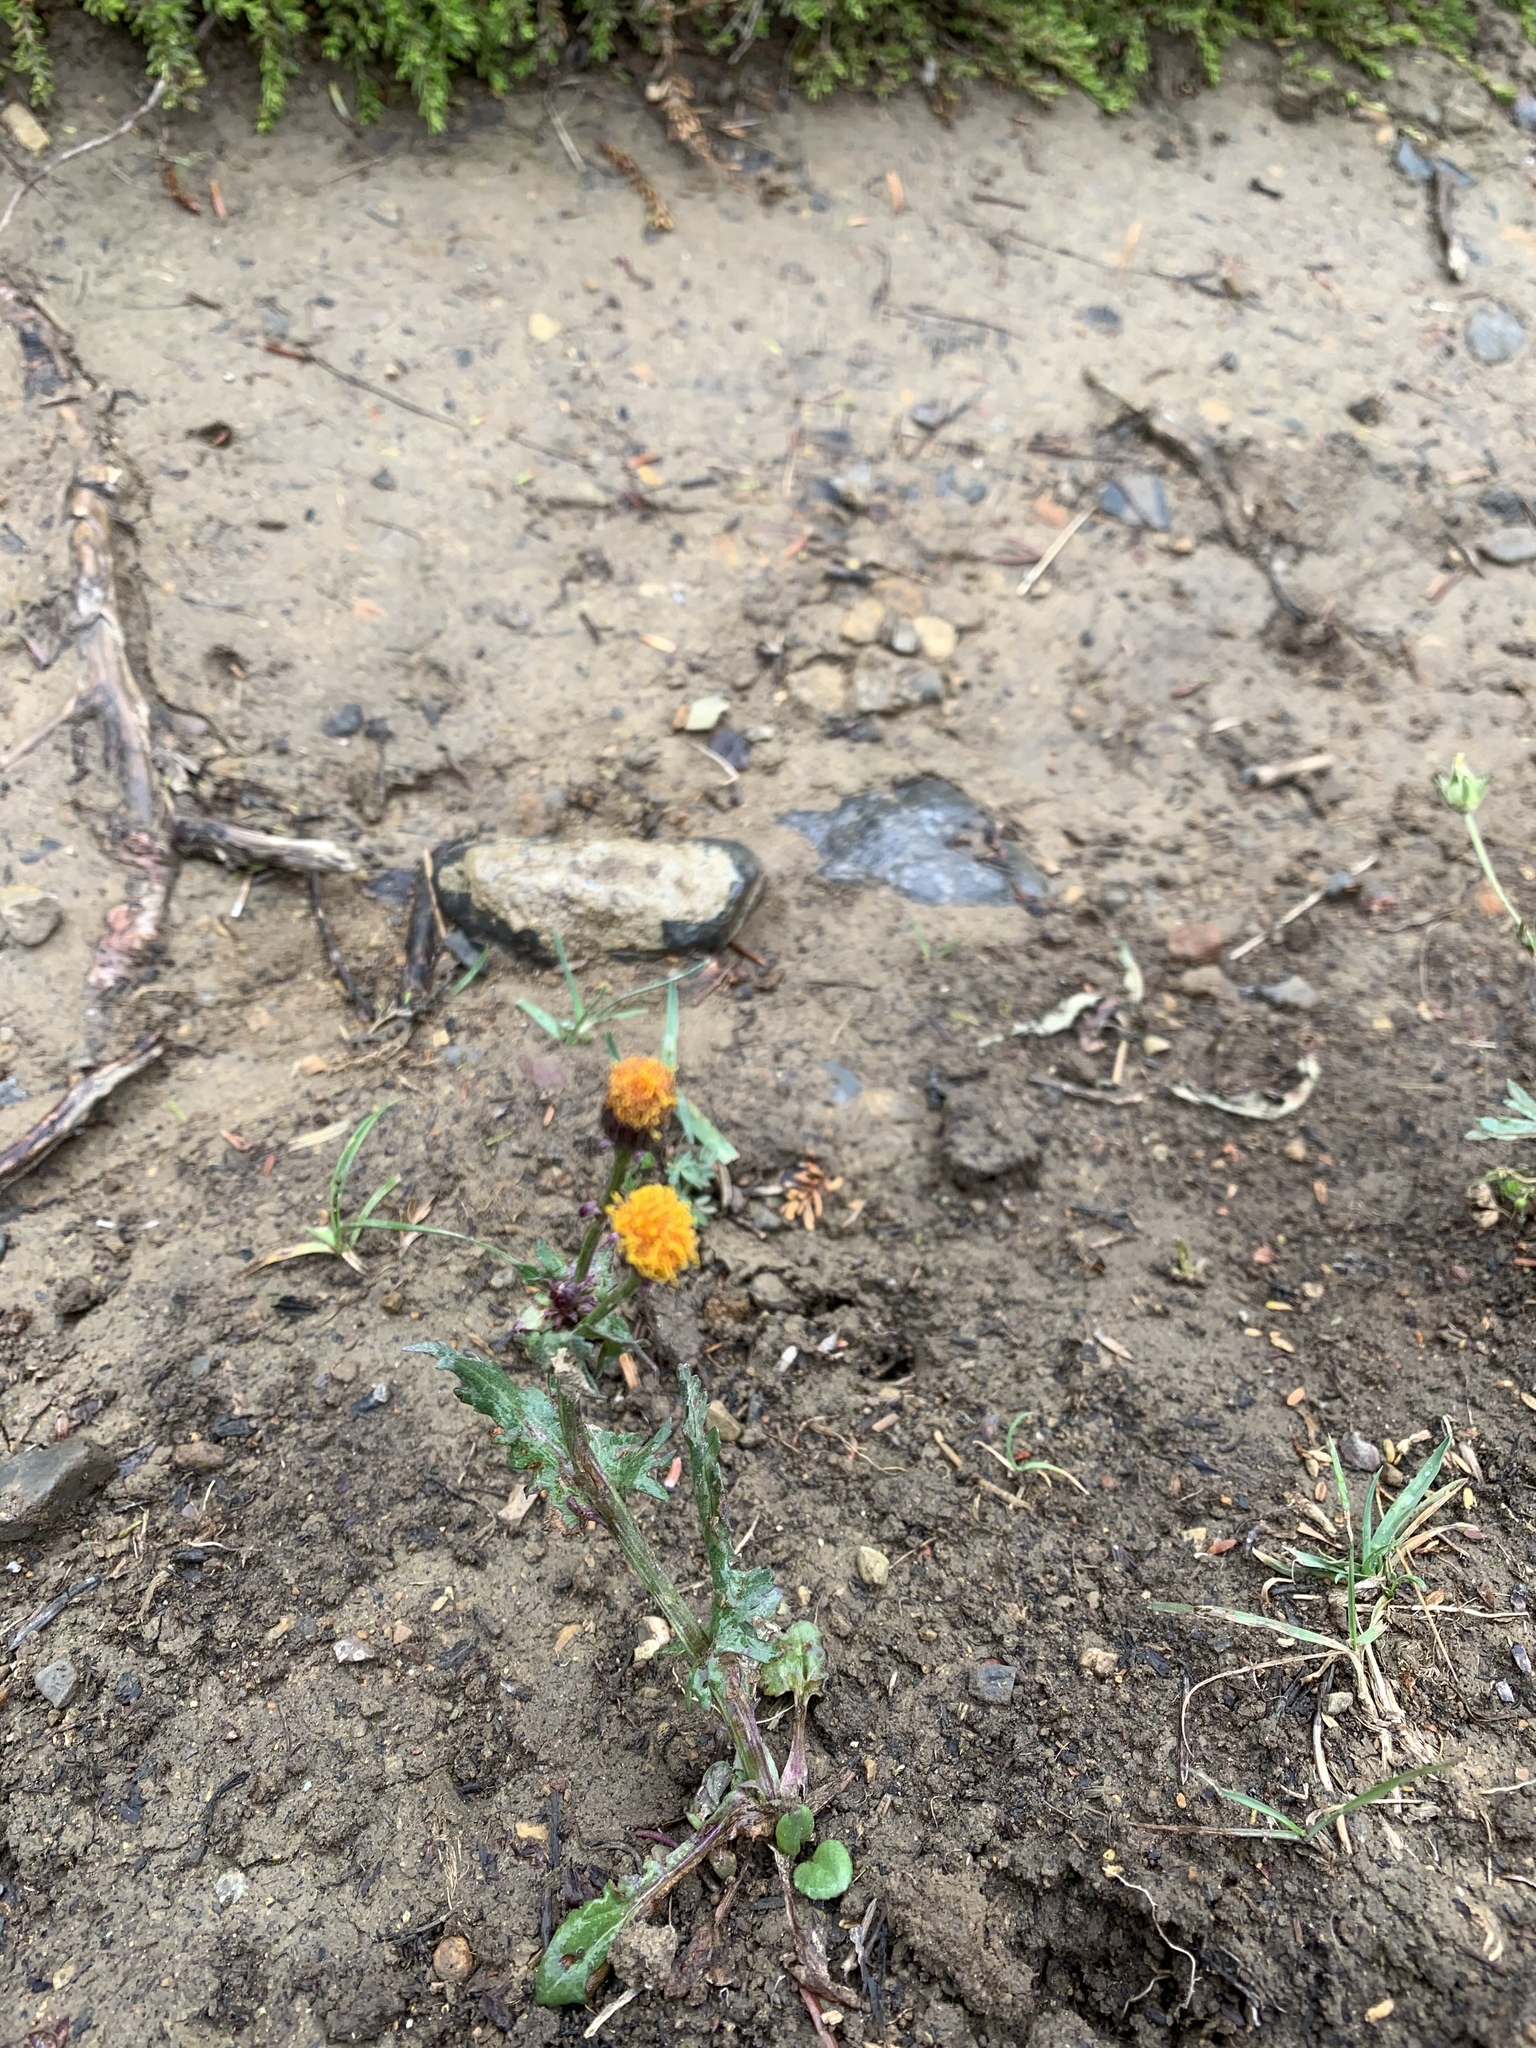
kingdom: Plantae
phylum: Tracheophyta
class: Magnoliopsida
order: Asterales
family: Asteraceae
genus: Packera
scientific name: Packera pauciflora
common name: Alpine groundsel
